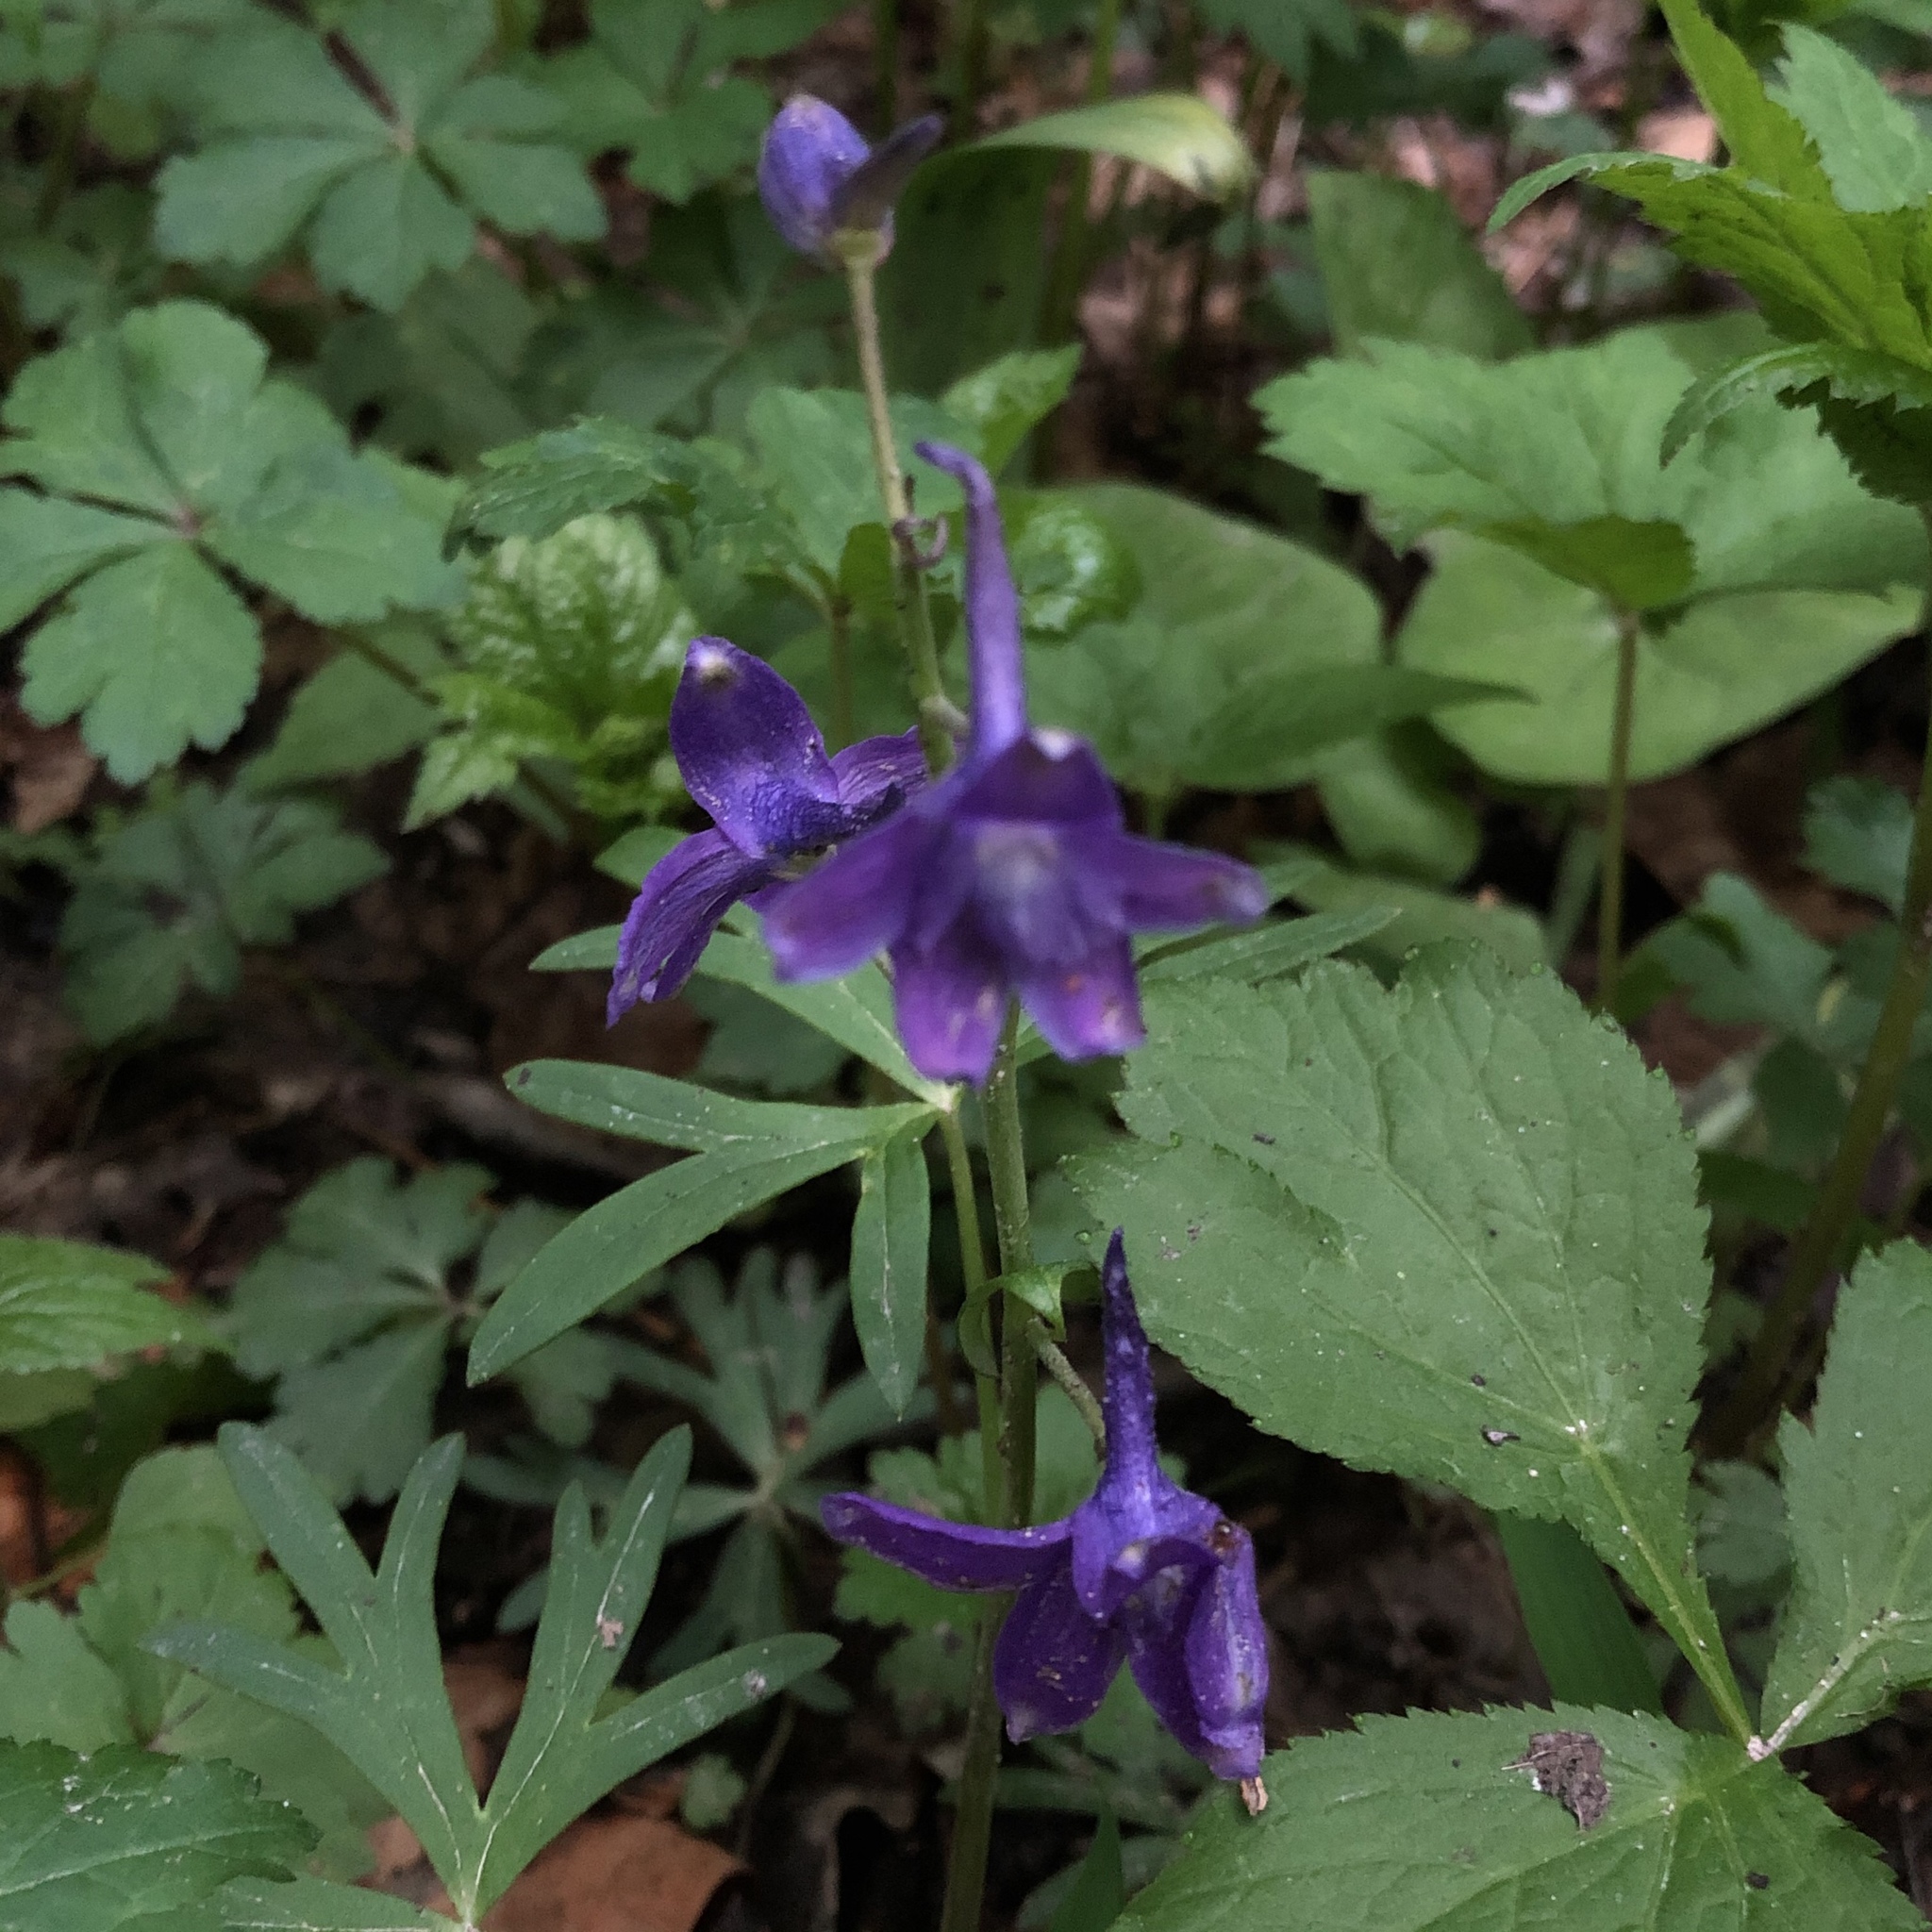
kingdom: Plantae
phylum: Tracheophyta
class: Magnoliopsida
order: Ranunculales
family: Ranunculaceae
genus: Delphinium
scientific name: Delphinium tricorne
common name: Dwarf larkspur
